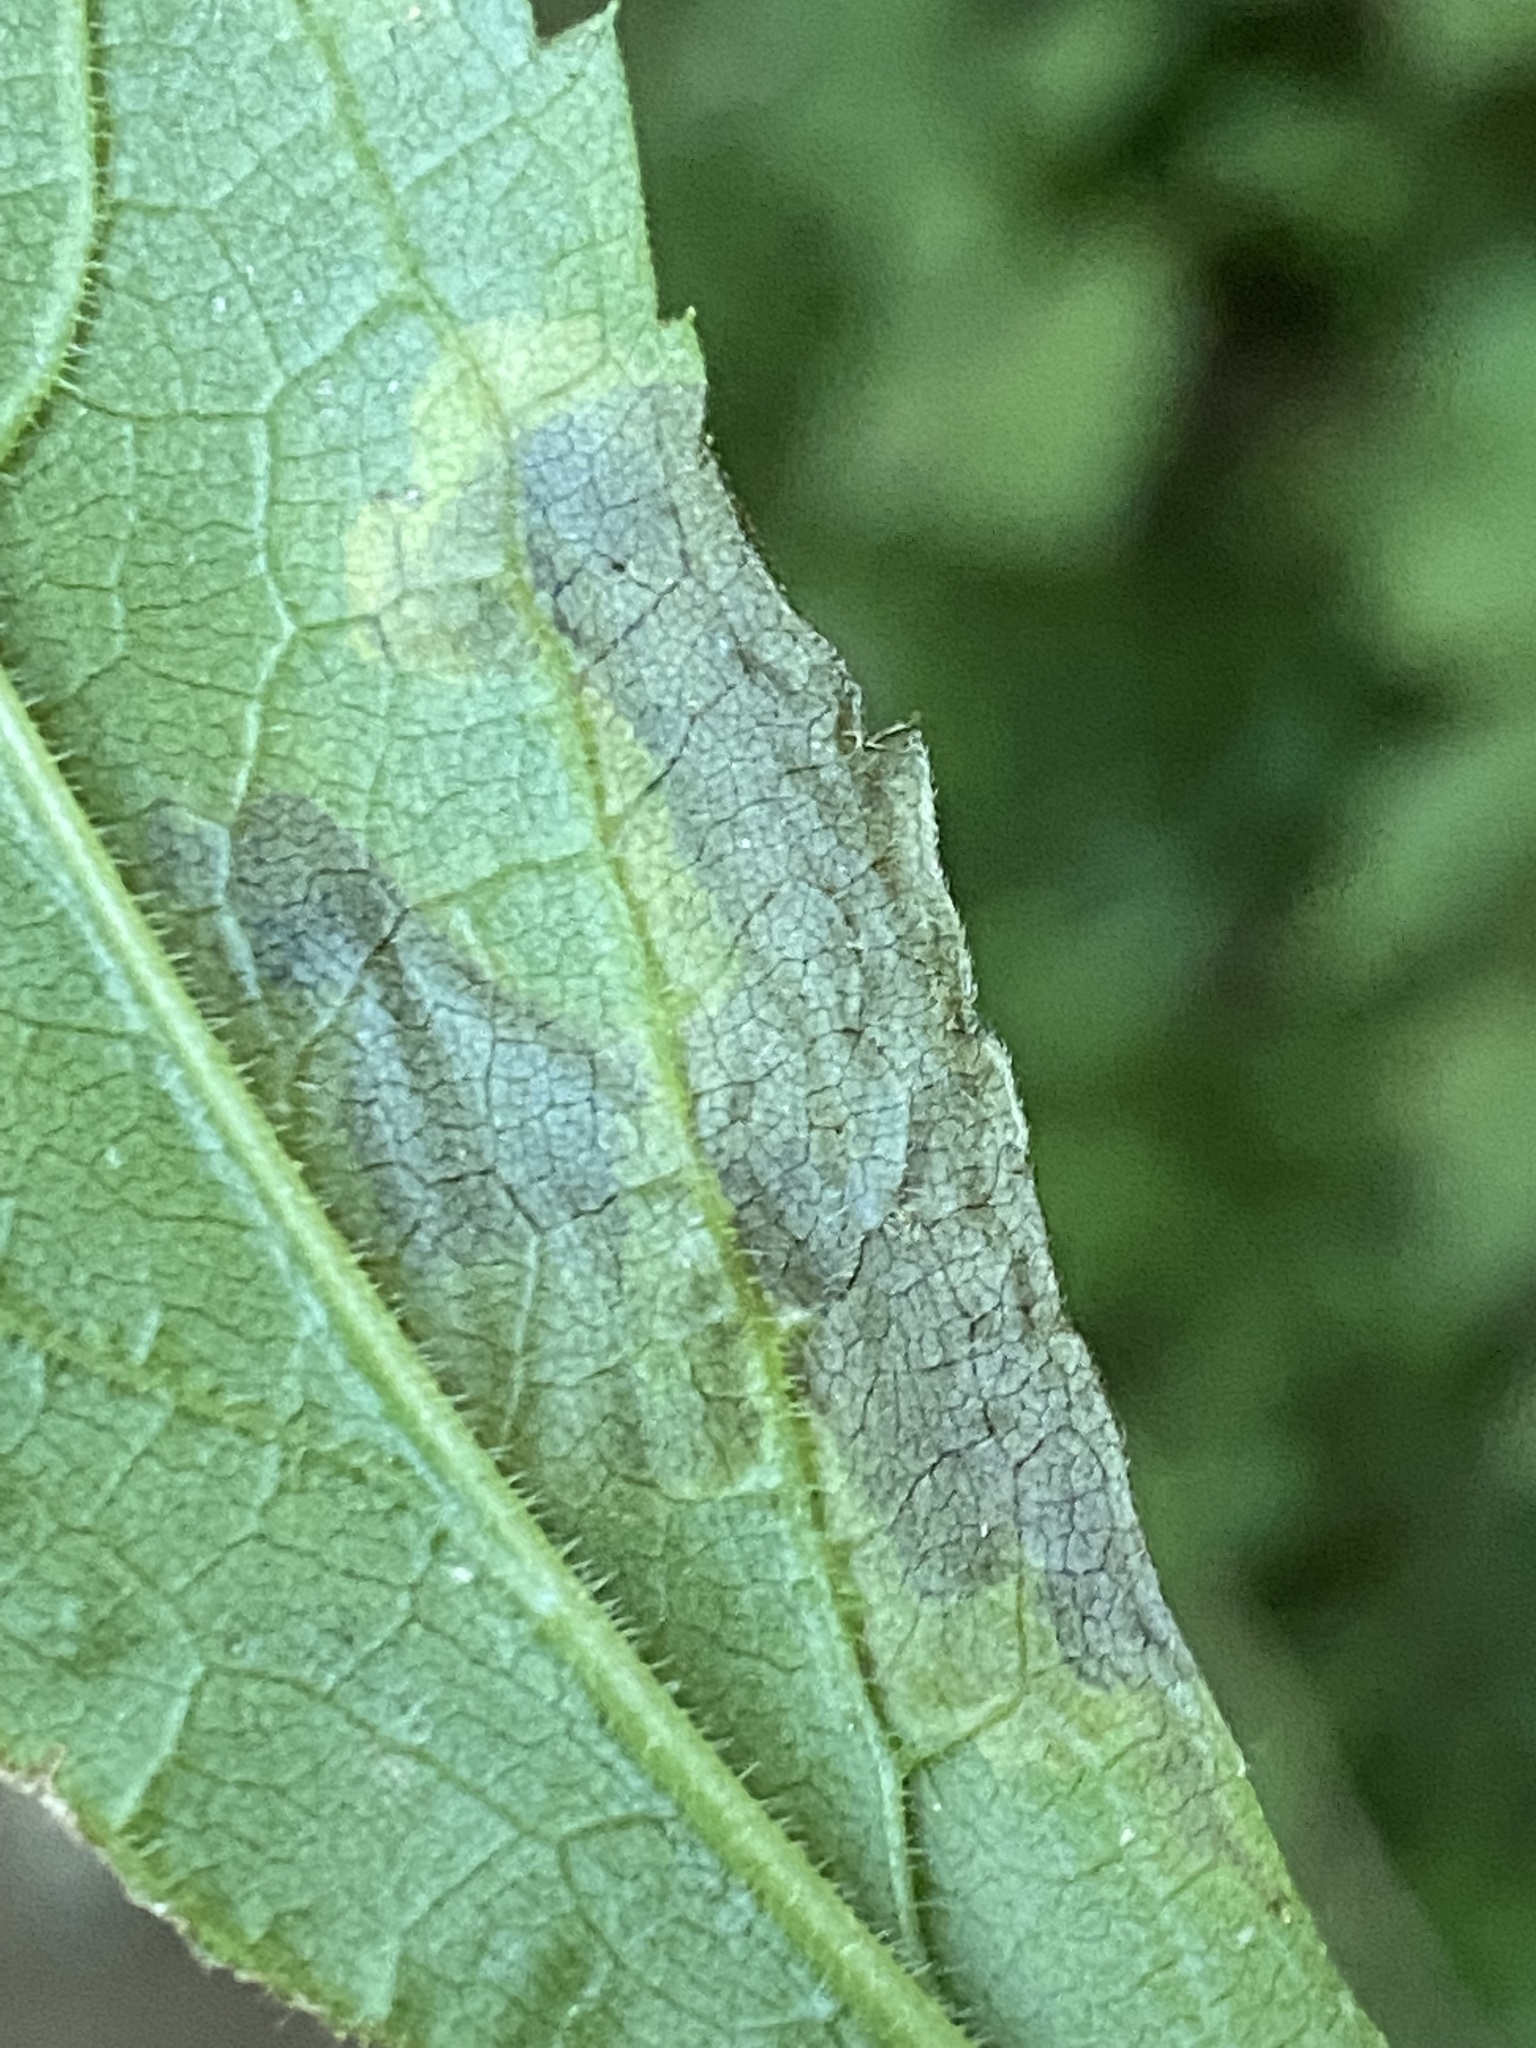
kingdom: Animalia
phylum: Arthropoda
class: Insecta
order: Diptera
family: Agromyzidae
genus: Nemorimyza
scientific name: Nemorimyza posticata
